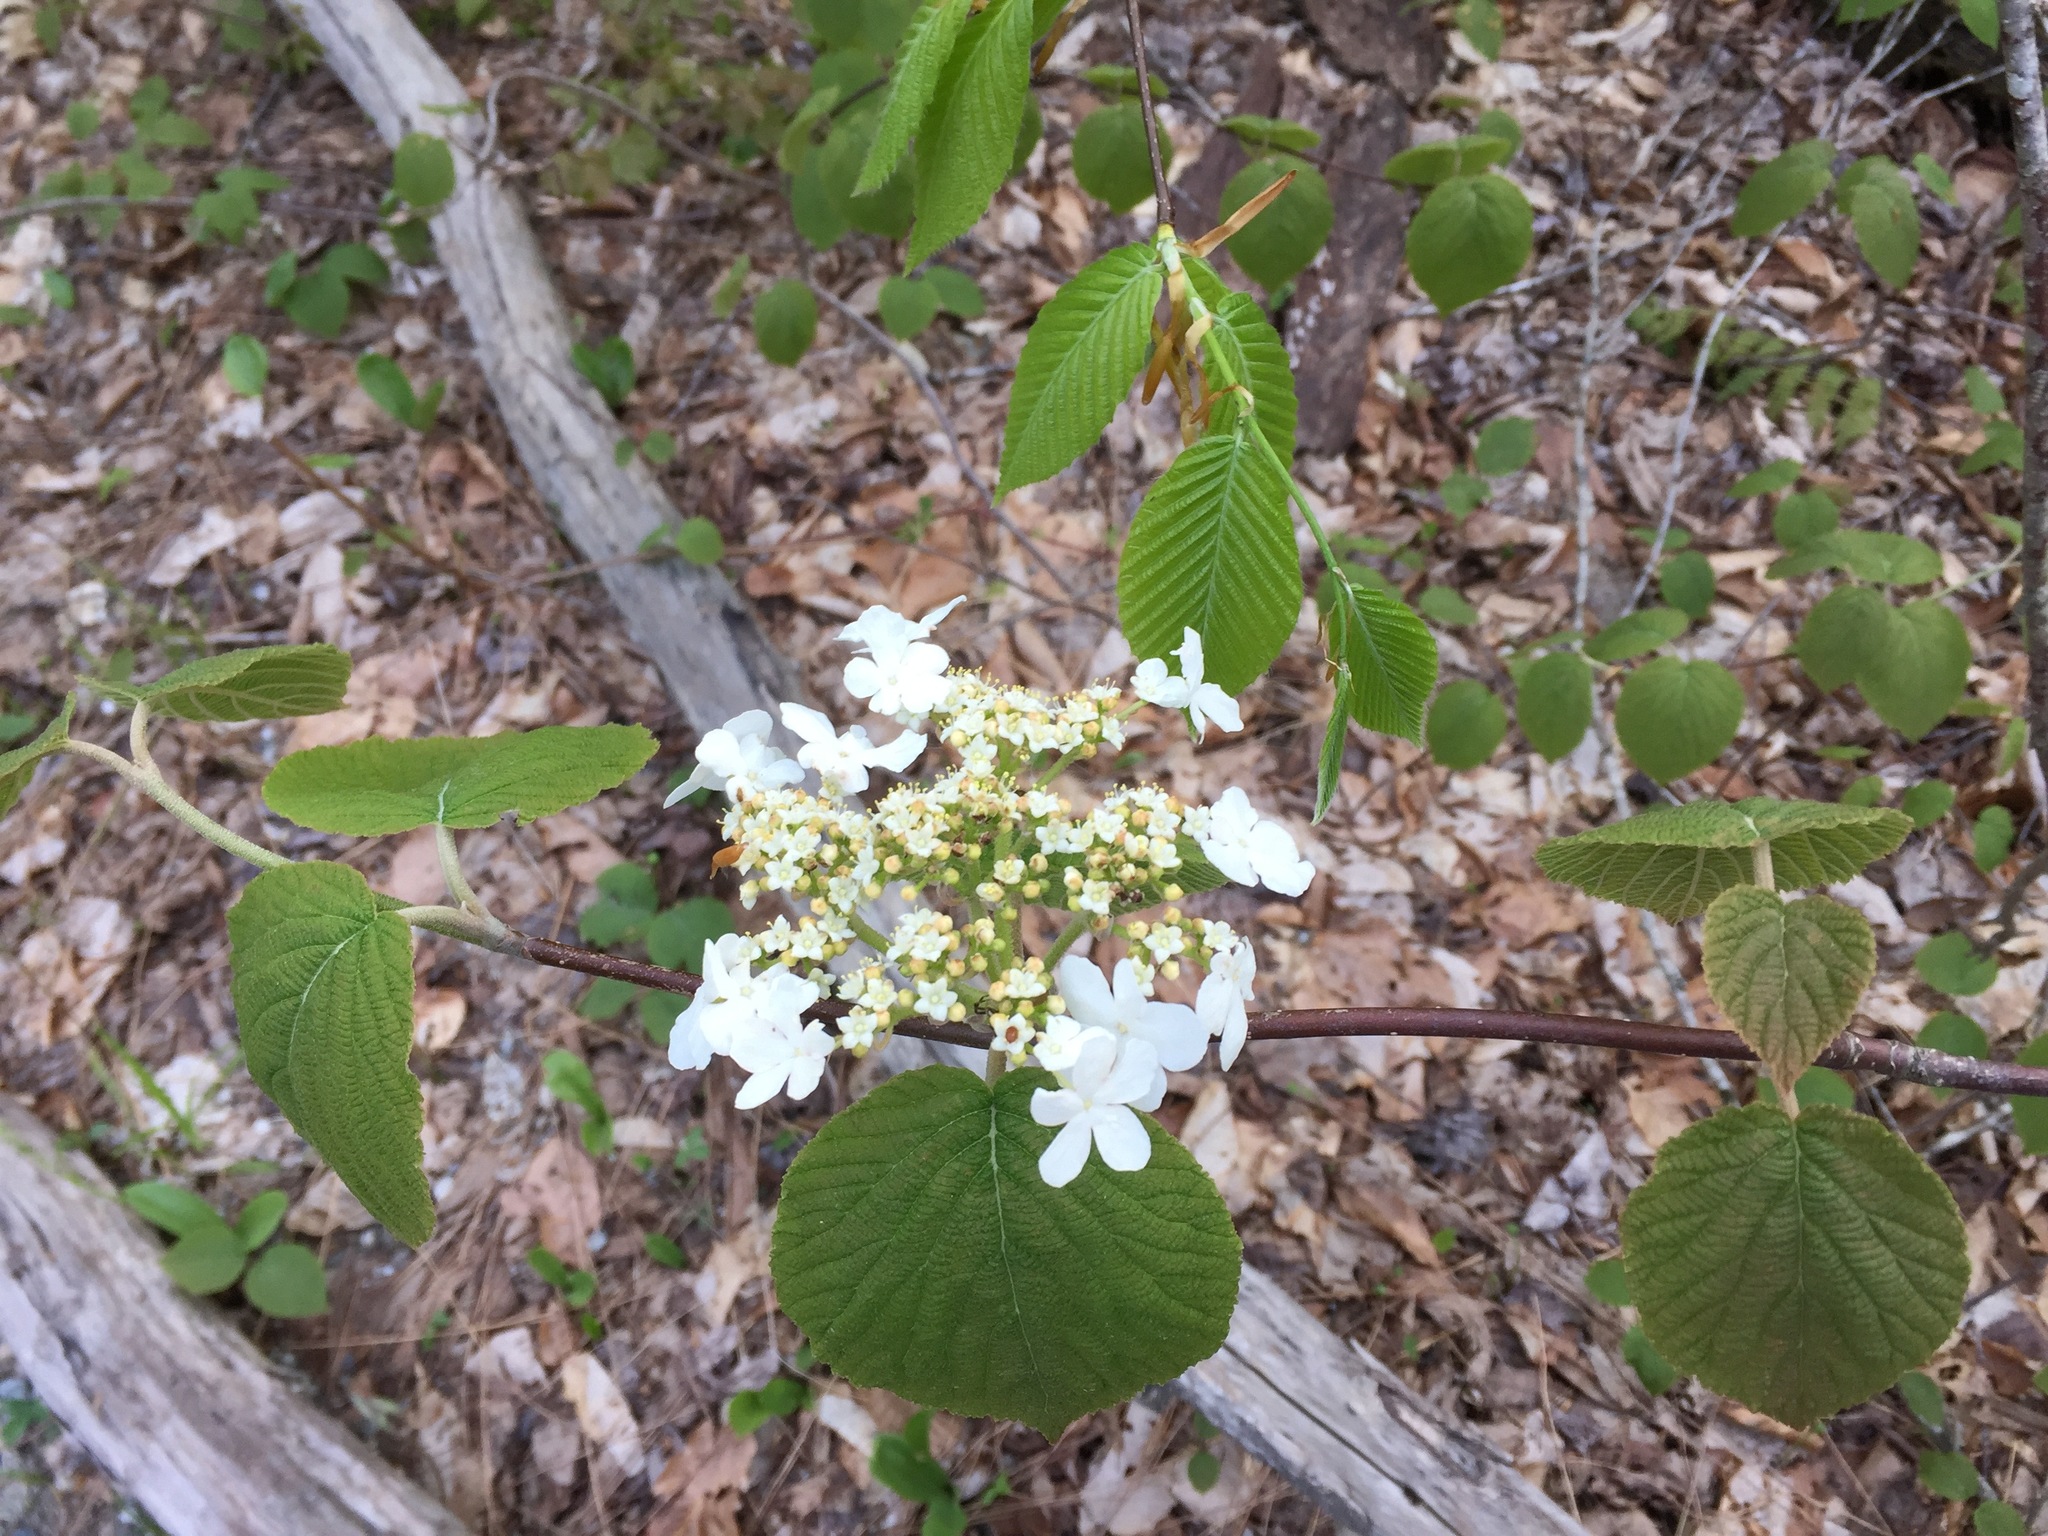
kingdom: Plantae
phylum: Tracheophyta
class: Magnoliopsida
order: Dipsacales
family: Viburnaceae
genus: Viburnum
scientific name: Viburnum lantanoides
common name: Hobblebush
